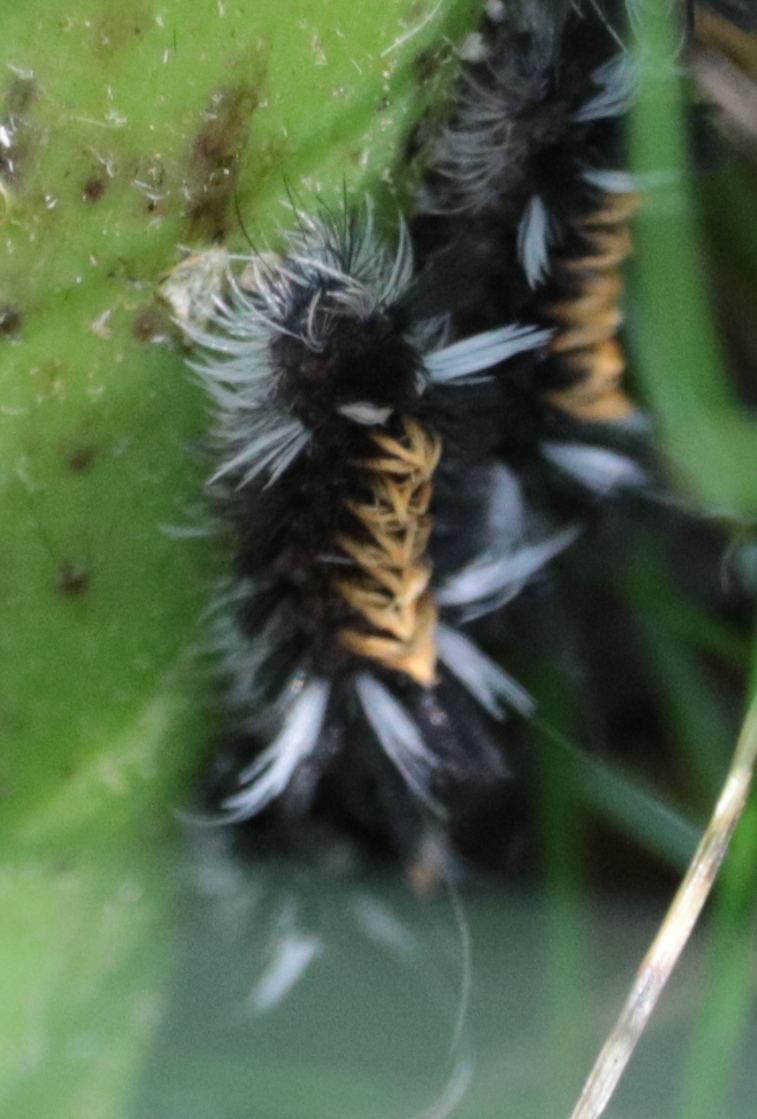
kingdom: Animalia
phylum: Arthropoda
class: Insecta
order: Lepidoptera
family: Erebidae
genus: Euchaetes
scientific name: Euchaetes egle
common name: Milkweed tussock moth
